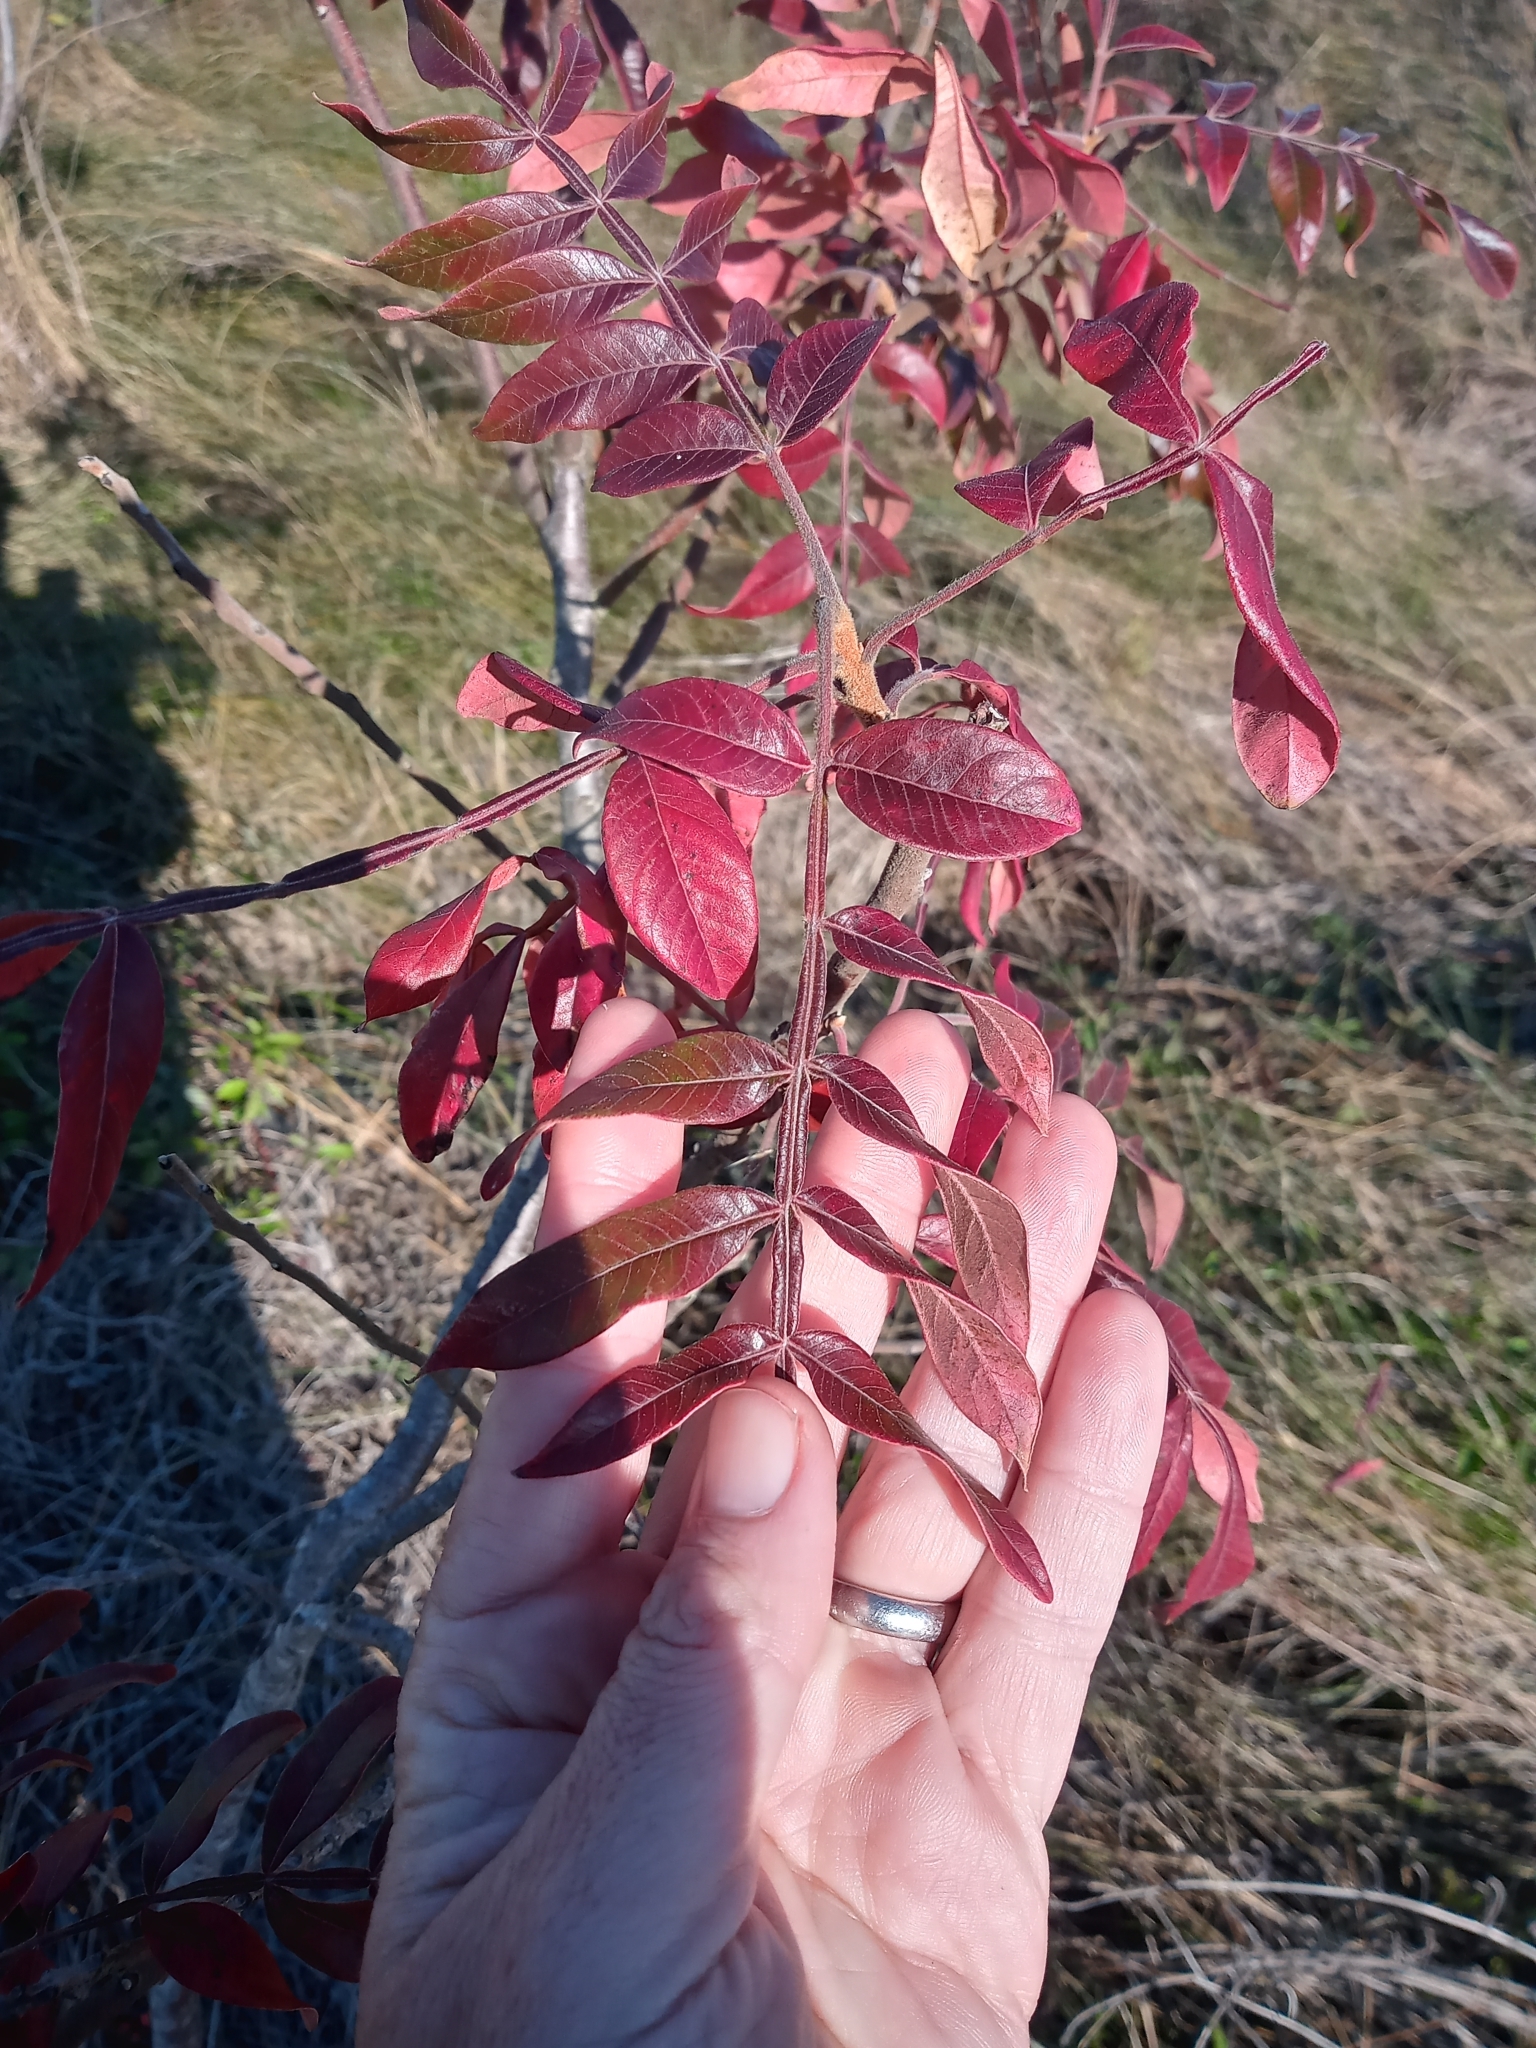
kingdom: Plantae
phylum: Tracheophyta
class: Magnoliopsida
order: Sapindales
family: Anacardiaceae
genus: Rhus
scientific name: Rhus copallina
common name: Shining sumac
